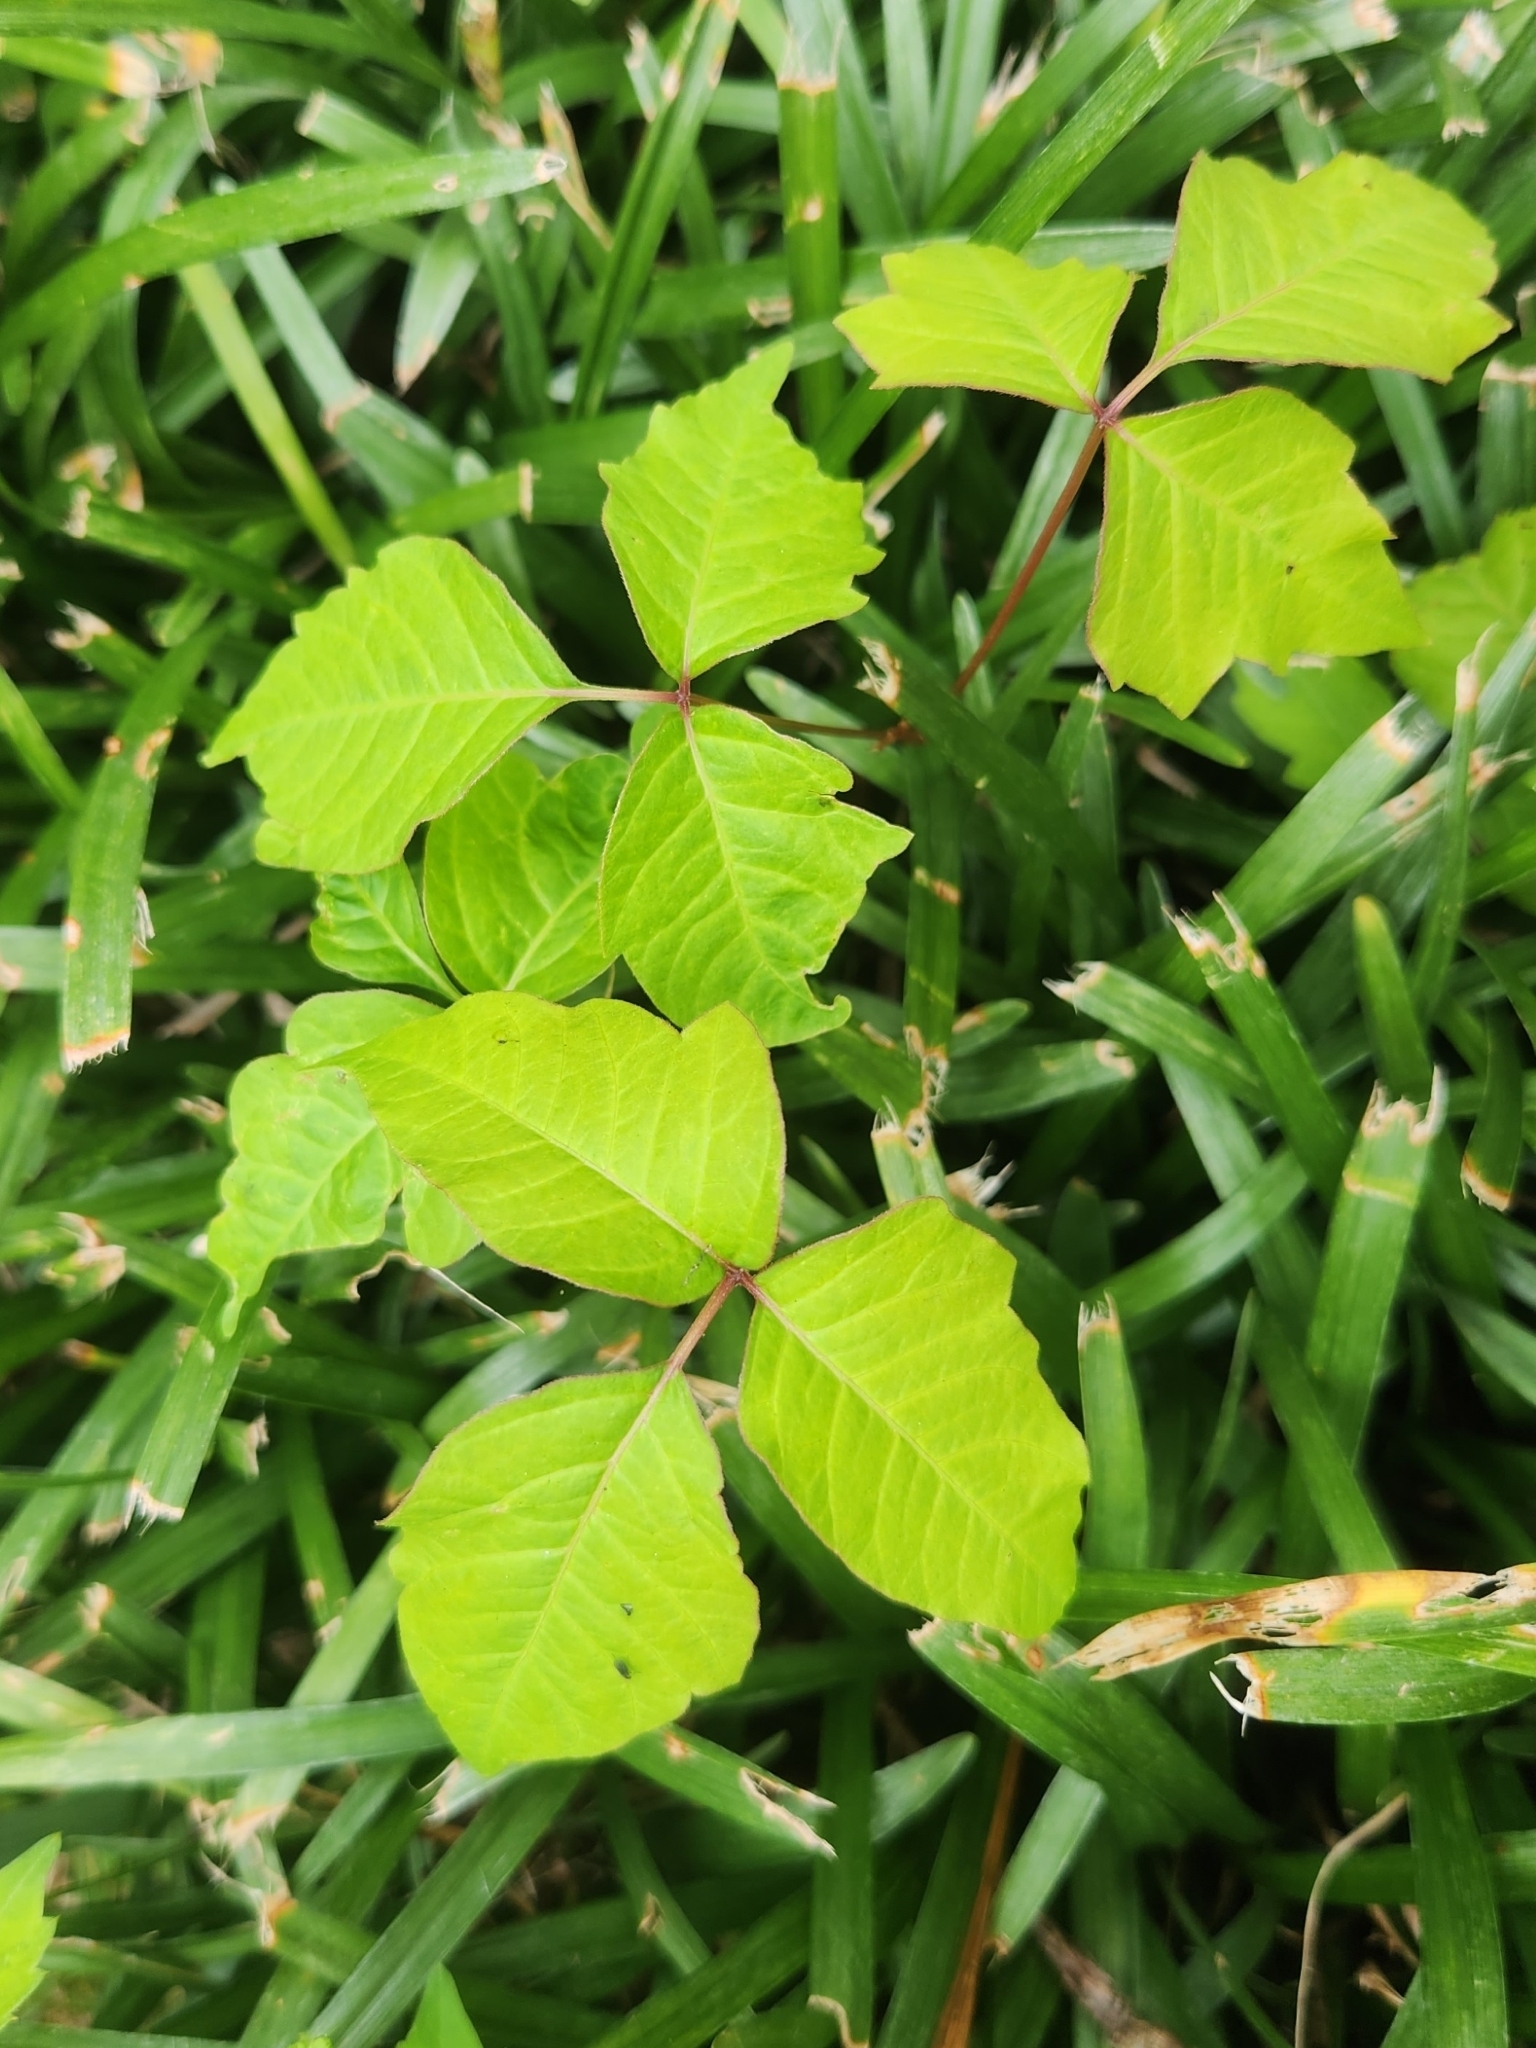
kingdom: Plantae
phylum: Tracheophyta
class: Magnoliopsida
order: Sapindales
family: Anacardiaceae
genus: Toxicodendron
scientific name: Toxicodendron radicans
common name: Poison ivy
